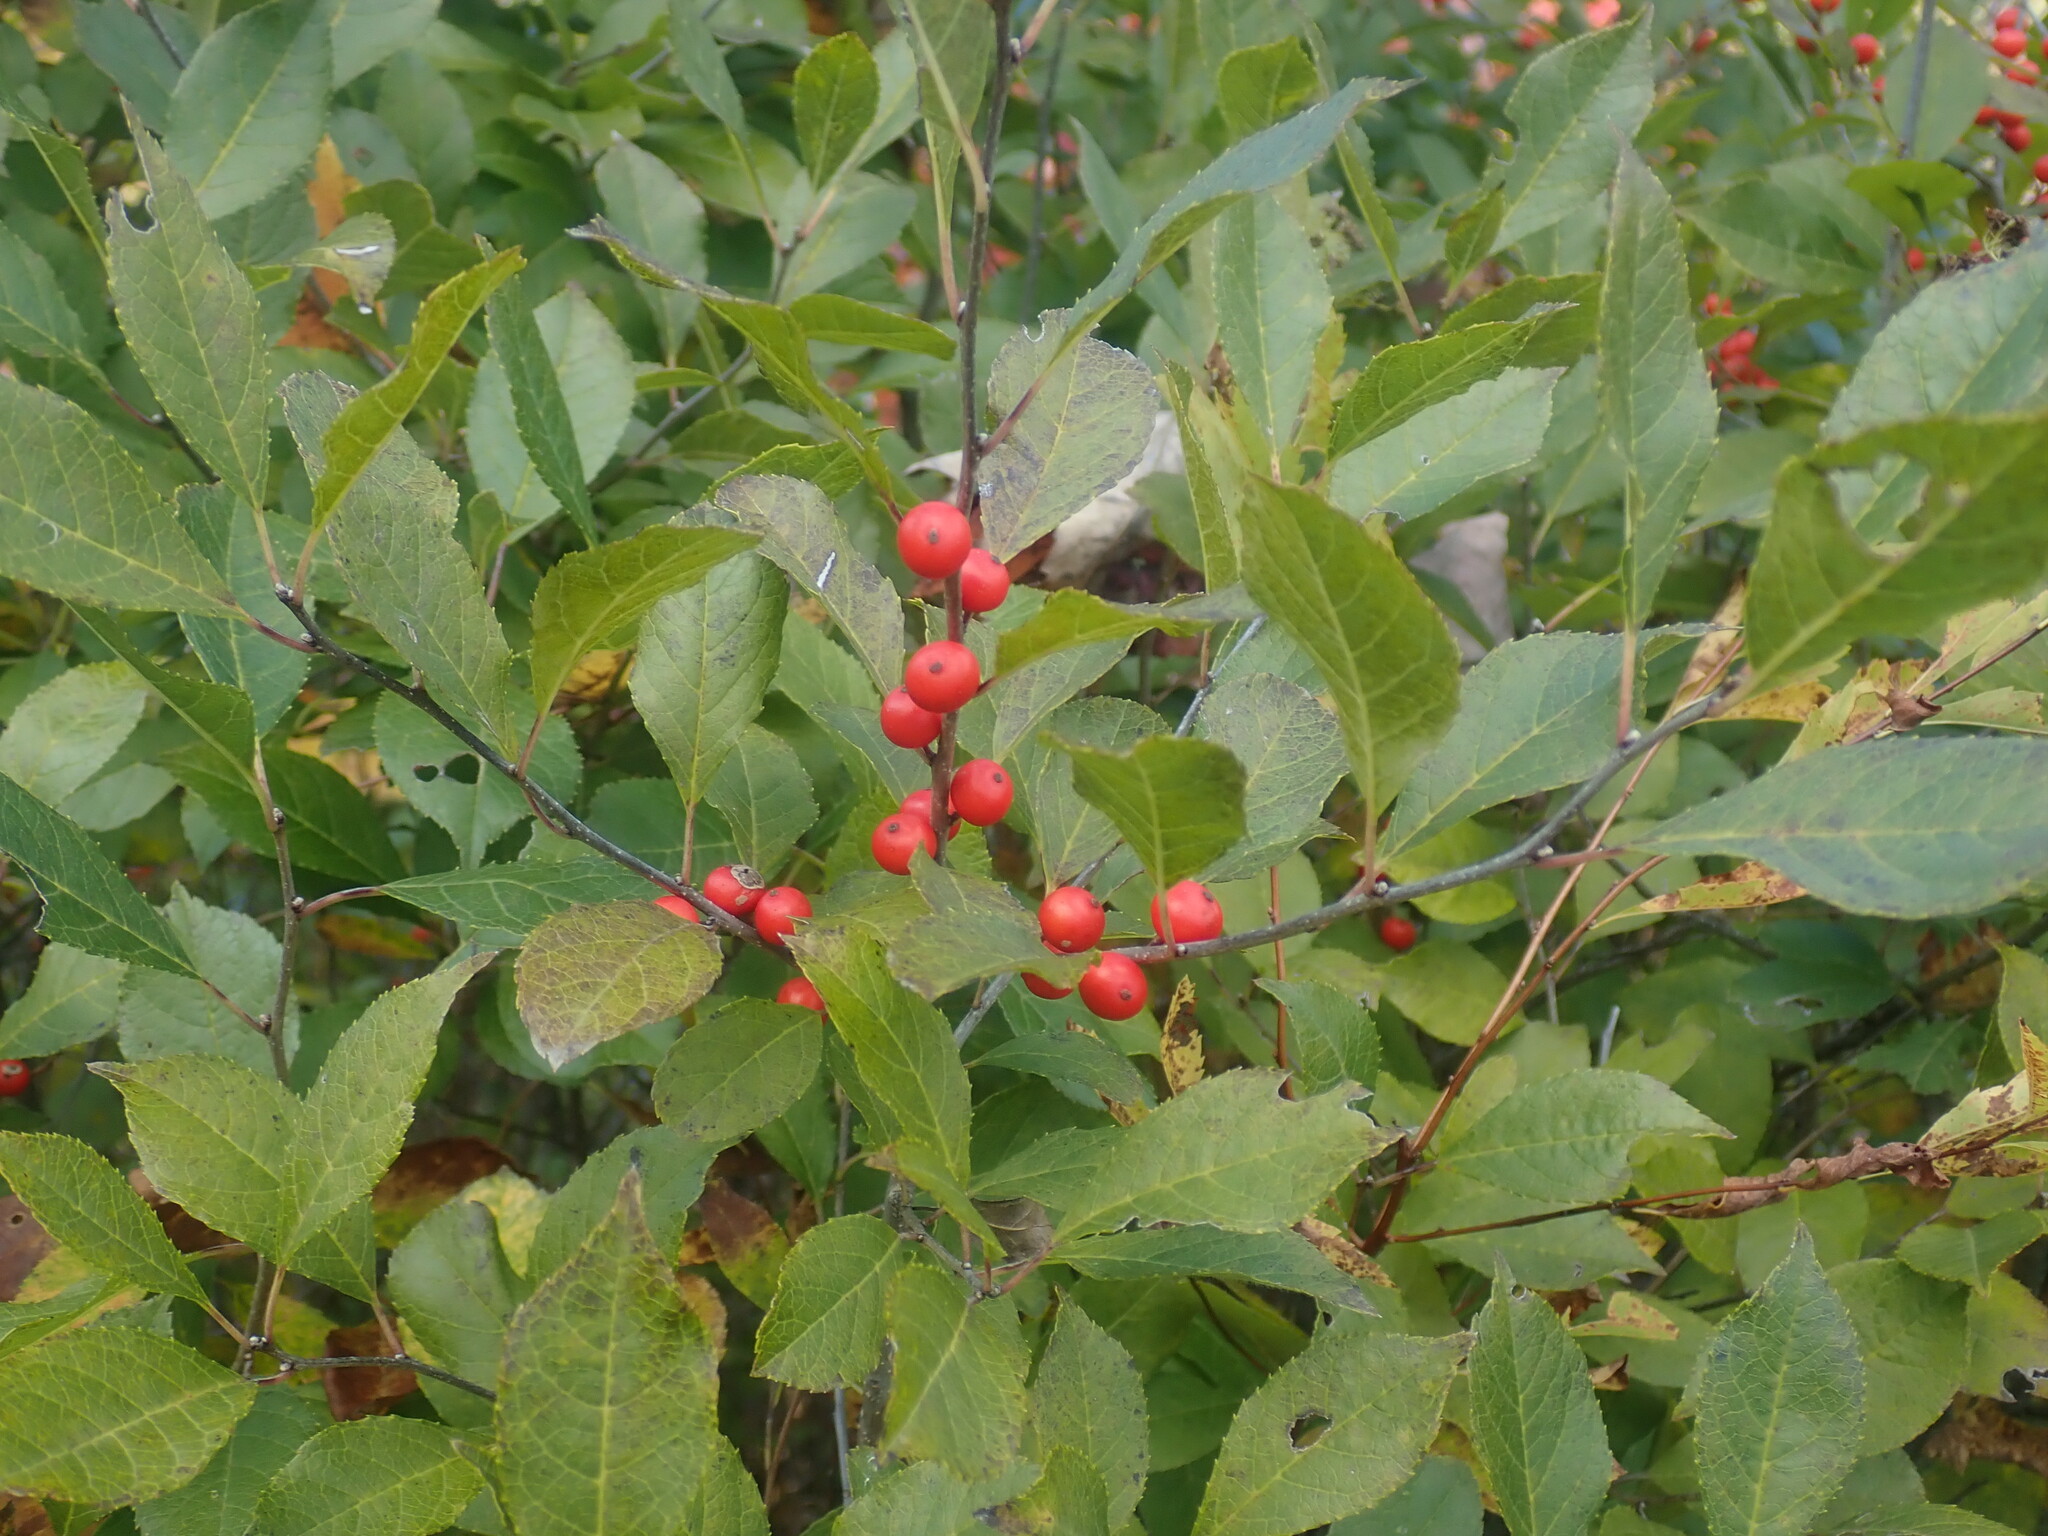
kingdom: Plantae
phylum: Tracheophyta
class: Magnoliopsida
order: Aquifoliales
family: Aquifoliaceae
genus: Ilex
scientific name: Ilex verticillata
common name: Virginia winterberry
